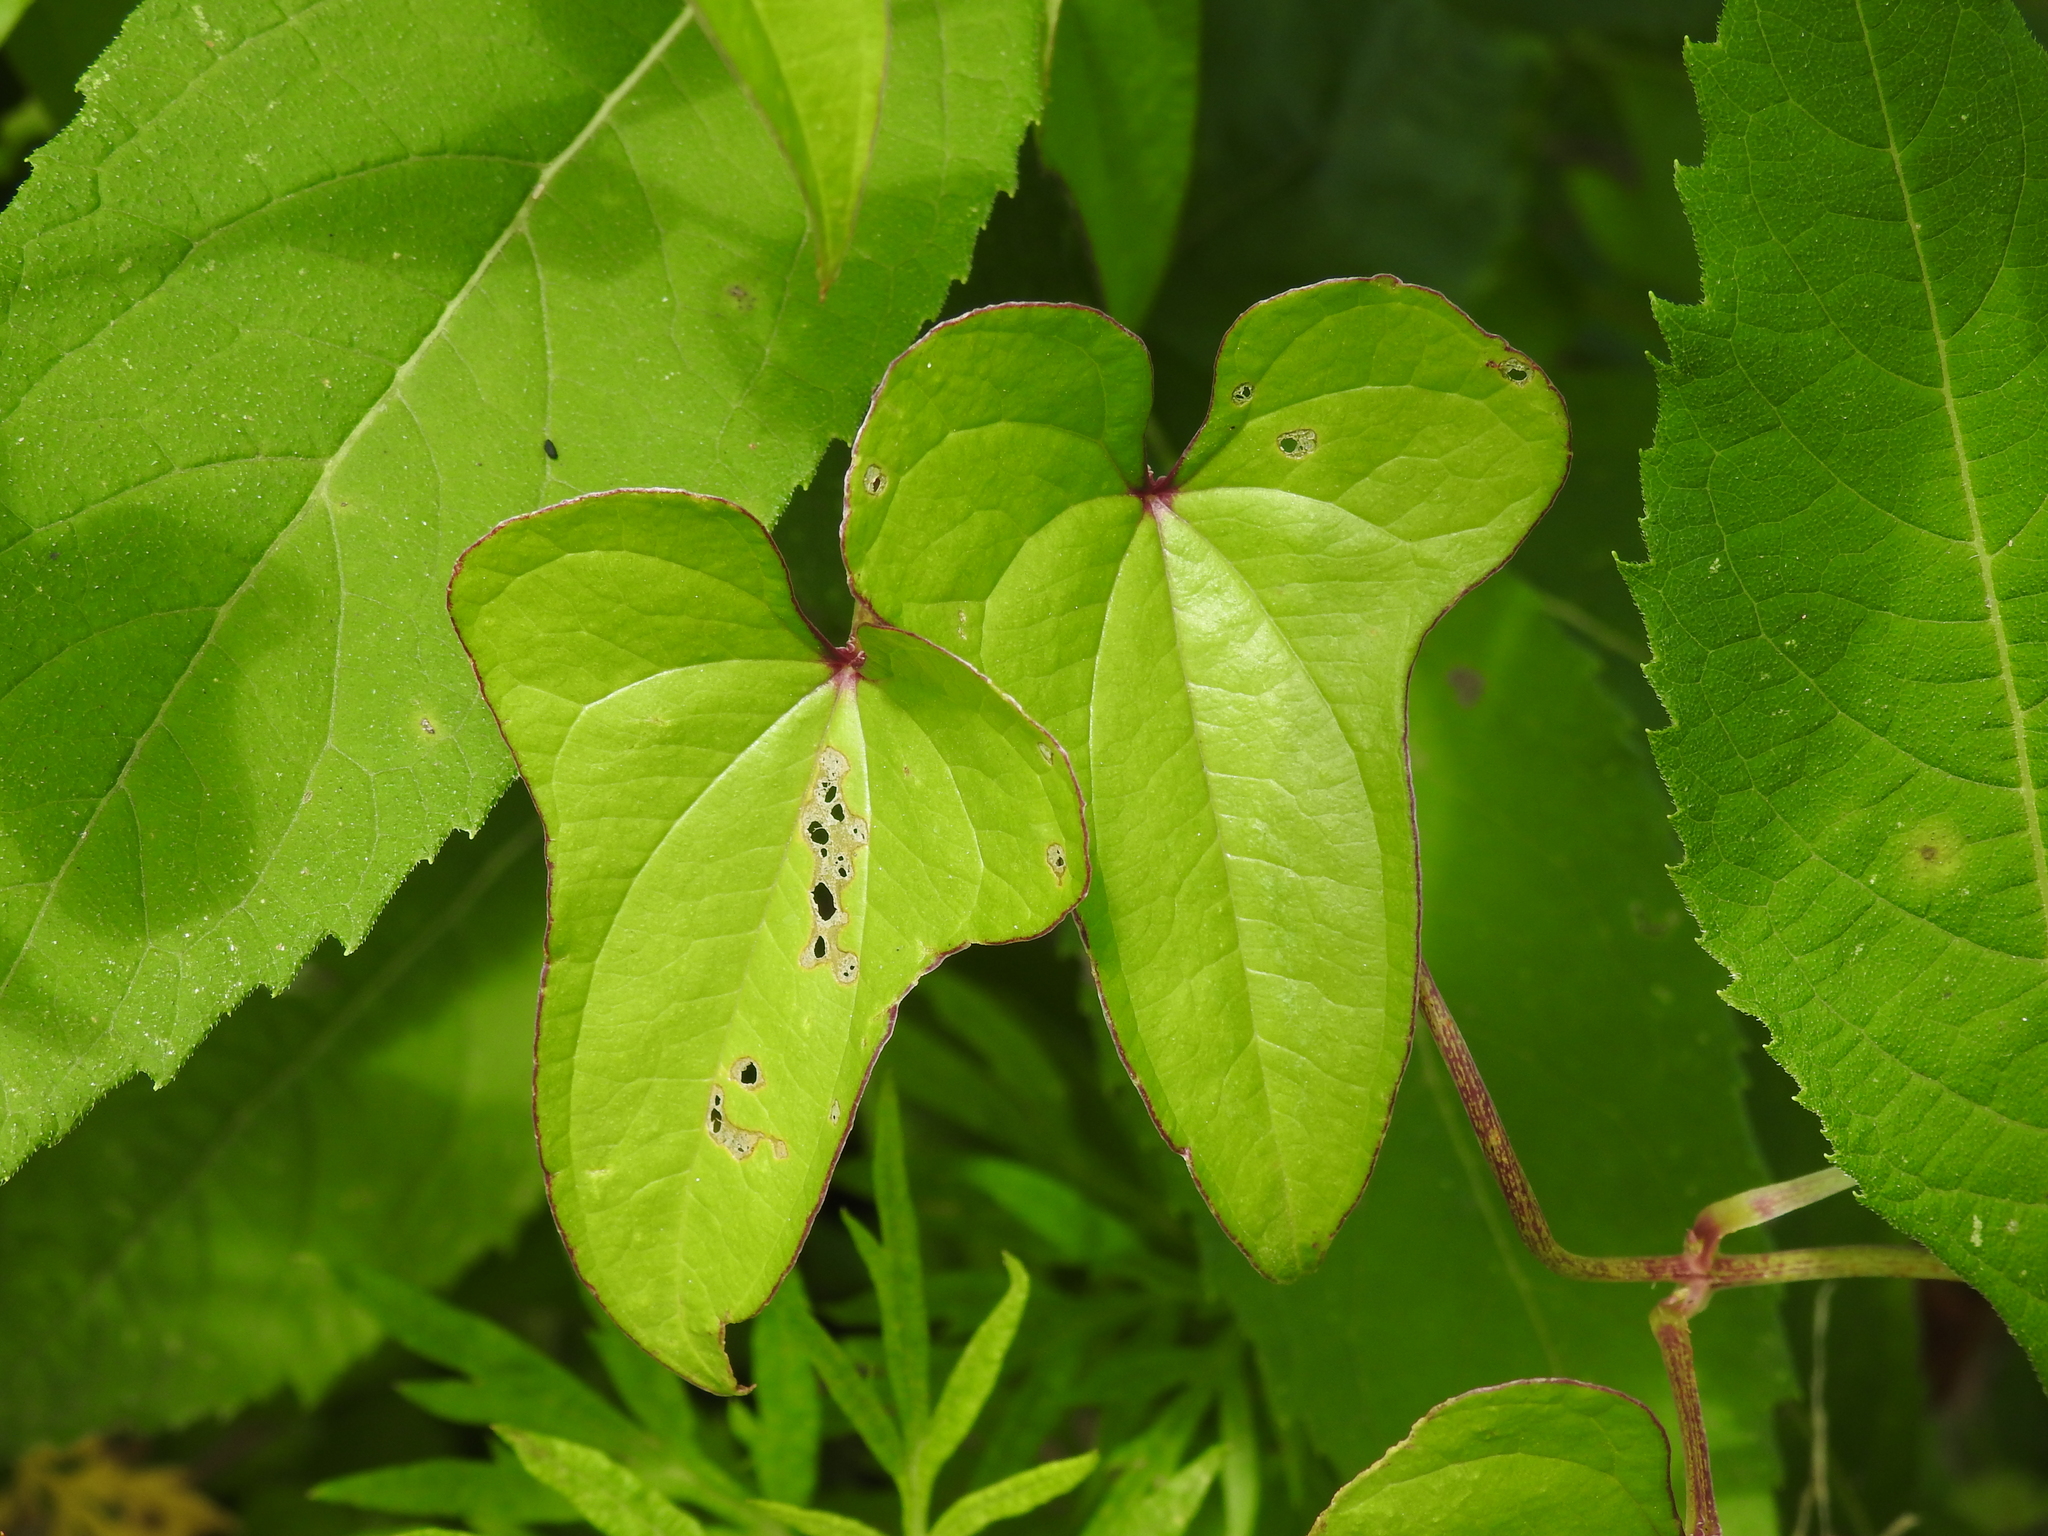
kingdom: Plantae
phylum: Tracheophyta
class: Liliopsida
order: Dioscoreales
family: Dioscoreaceae
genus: Dioscorea
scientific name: Dioscorea polystachya
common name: Chinese yam
